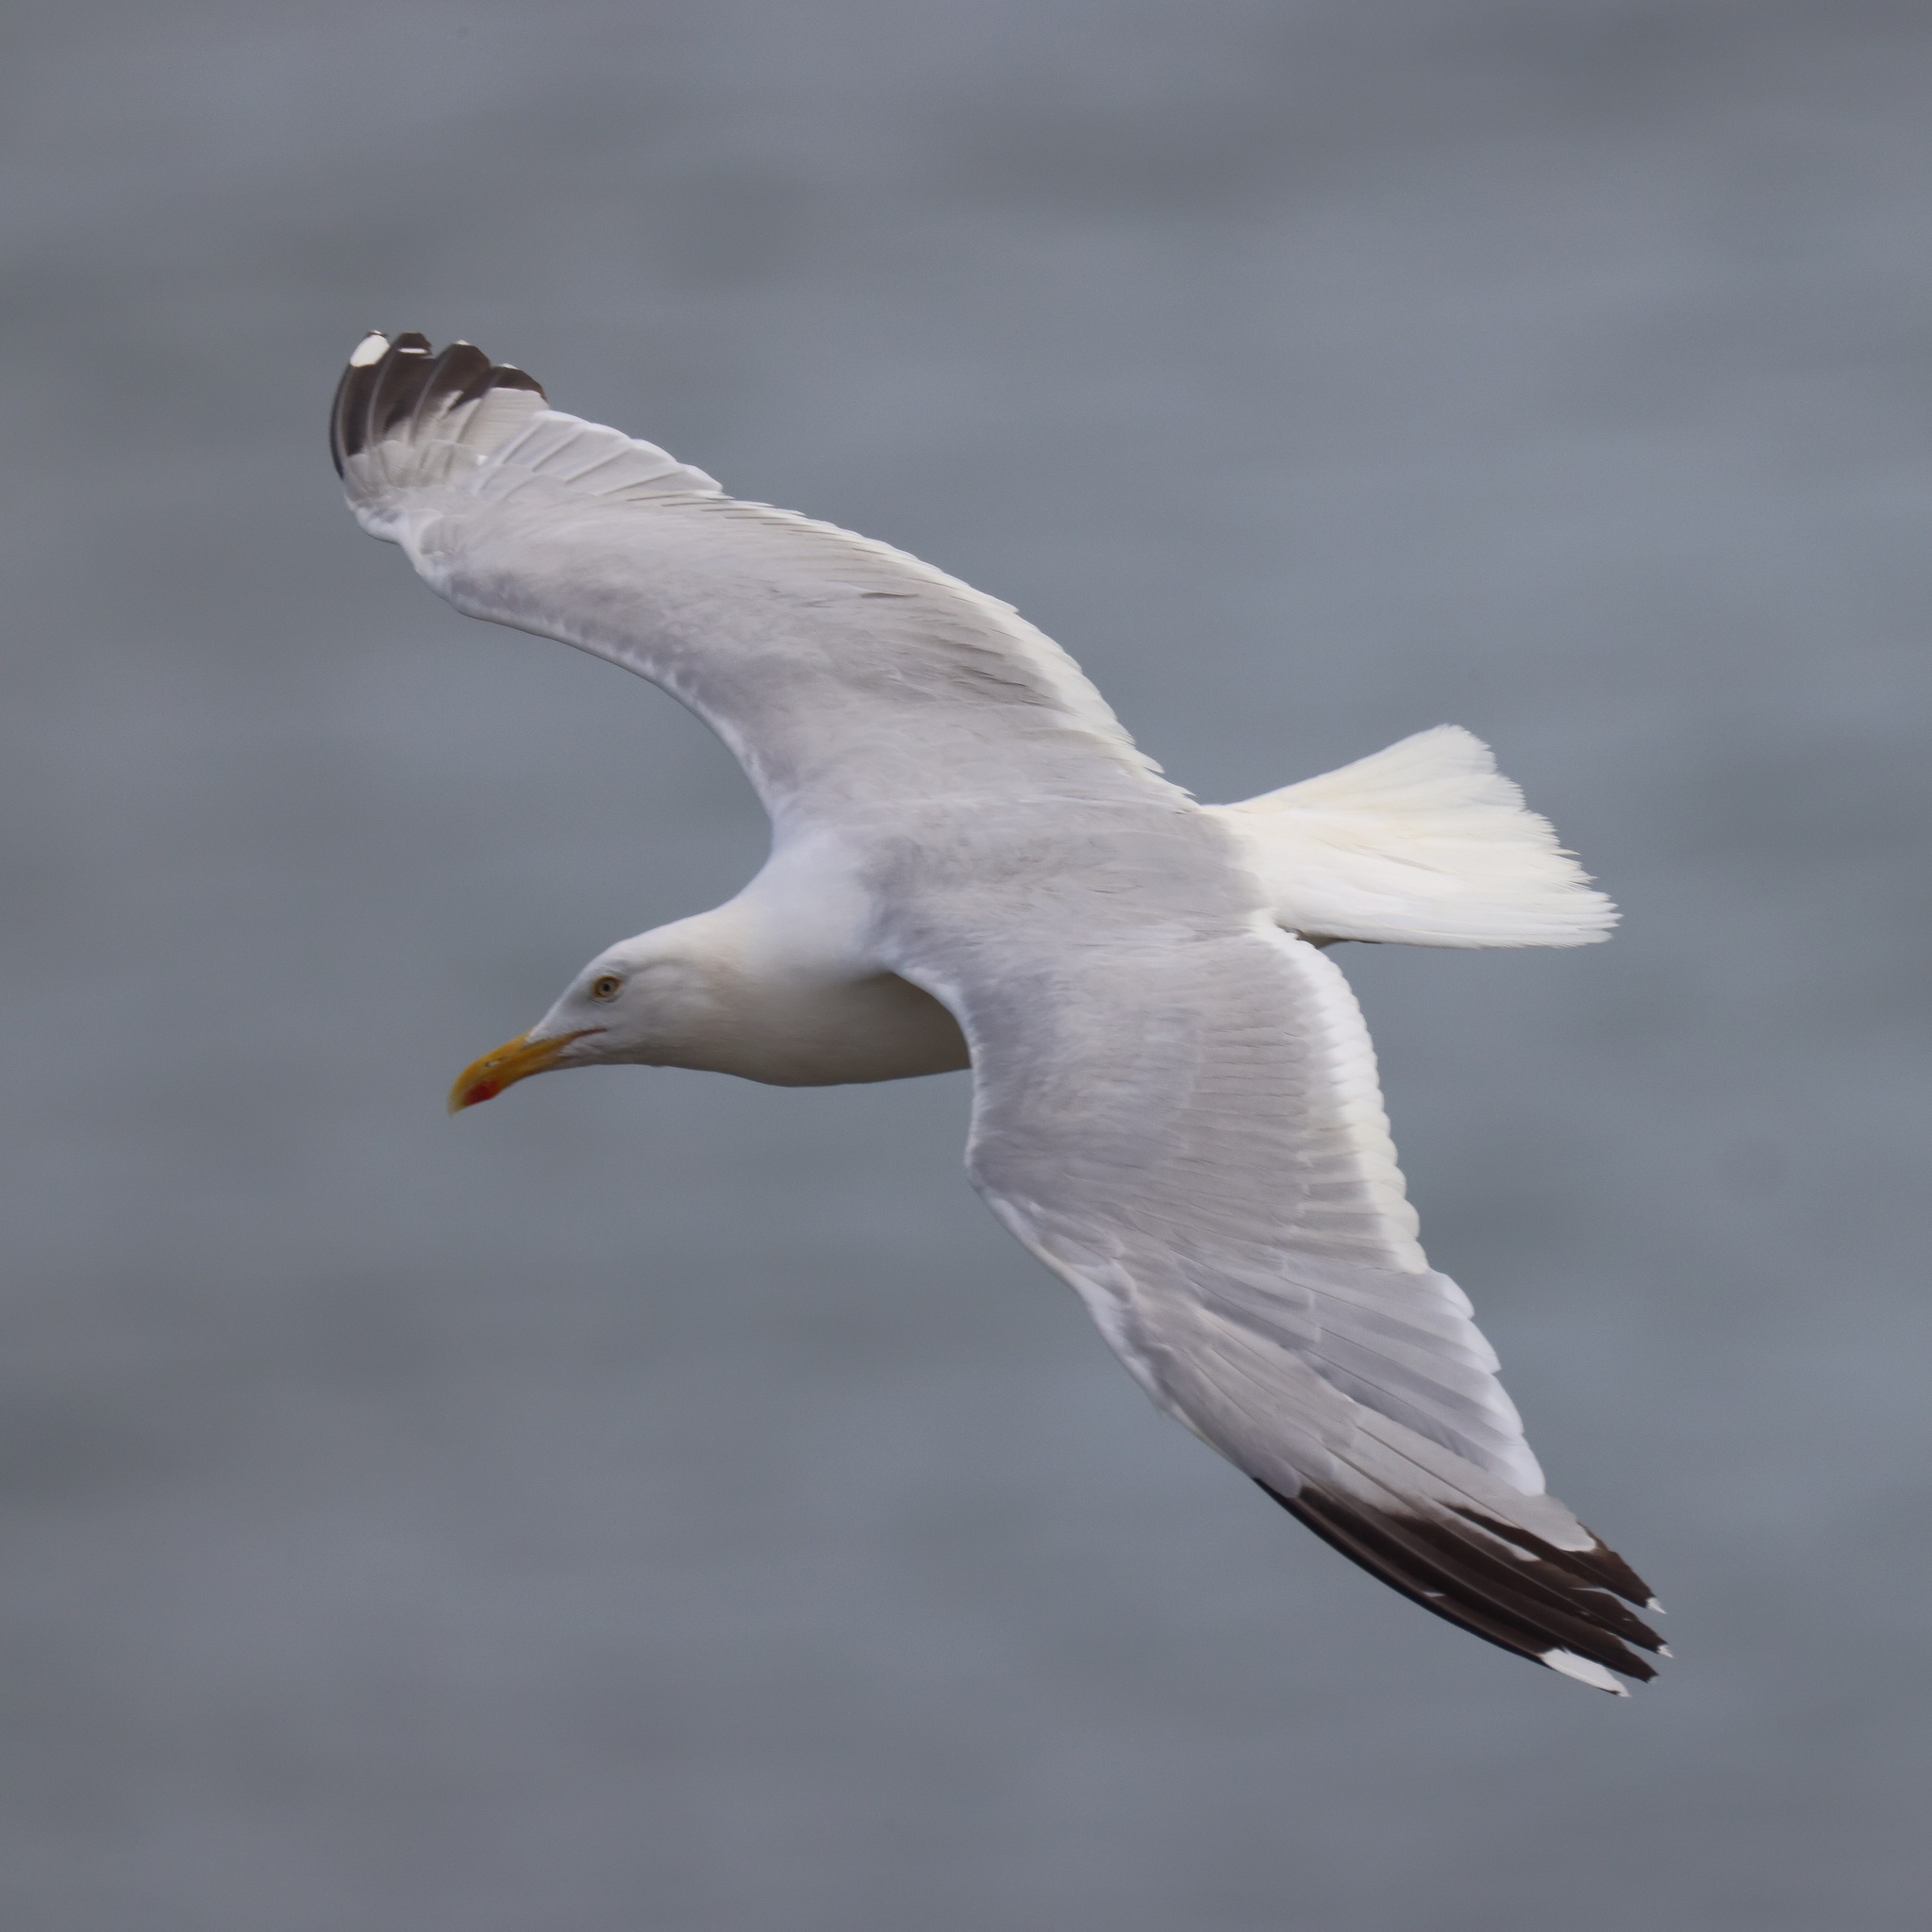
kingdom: Animalia
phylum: Chordata
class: Aves
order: Charadriiformes
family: Laridae
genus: Larus
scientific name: Larus argentatus
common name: Herring gull
